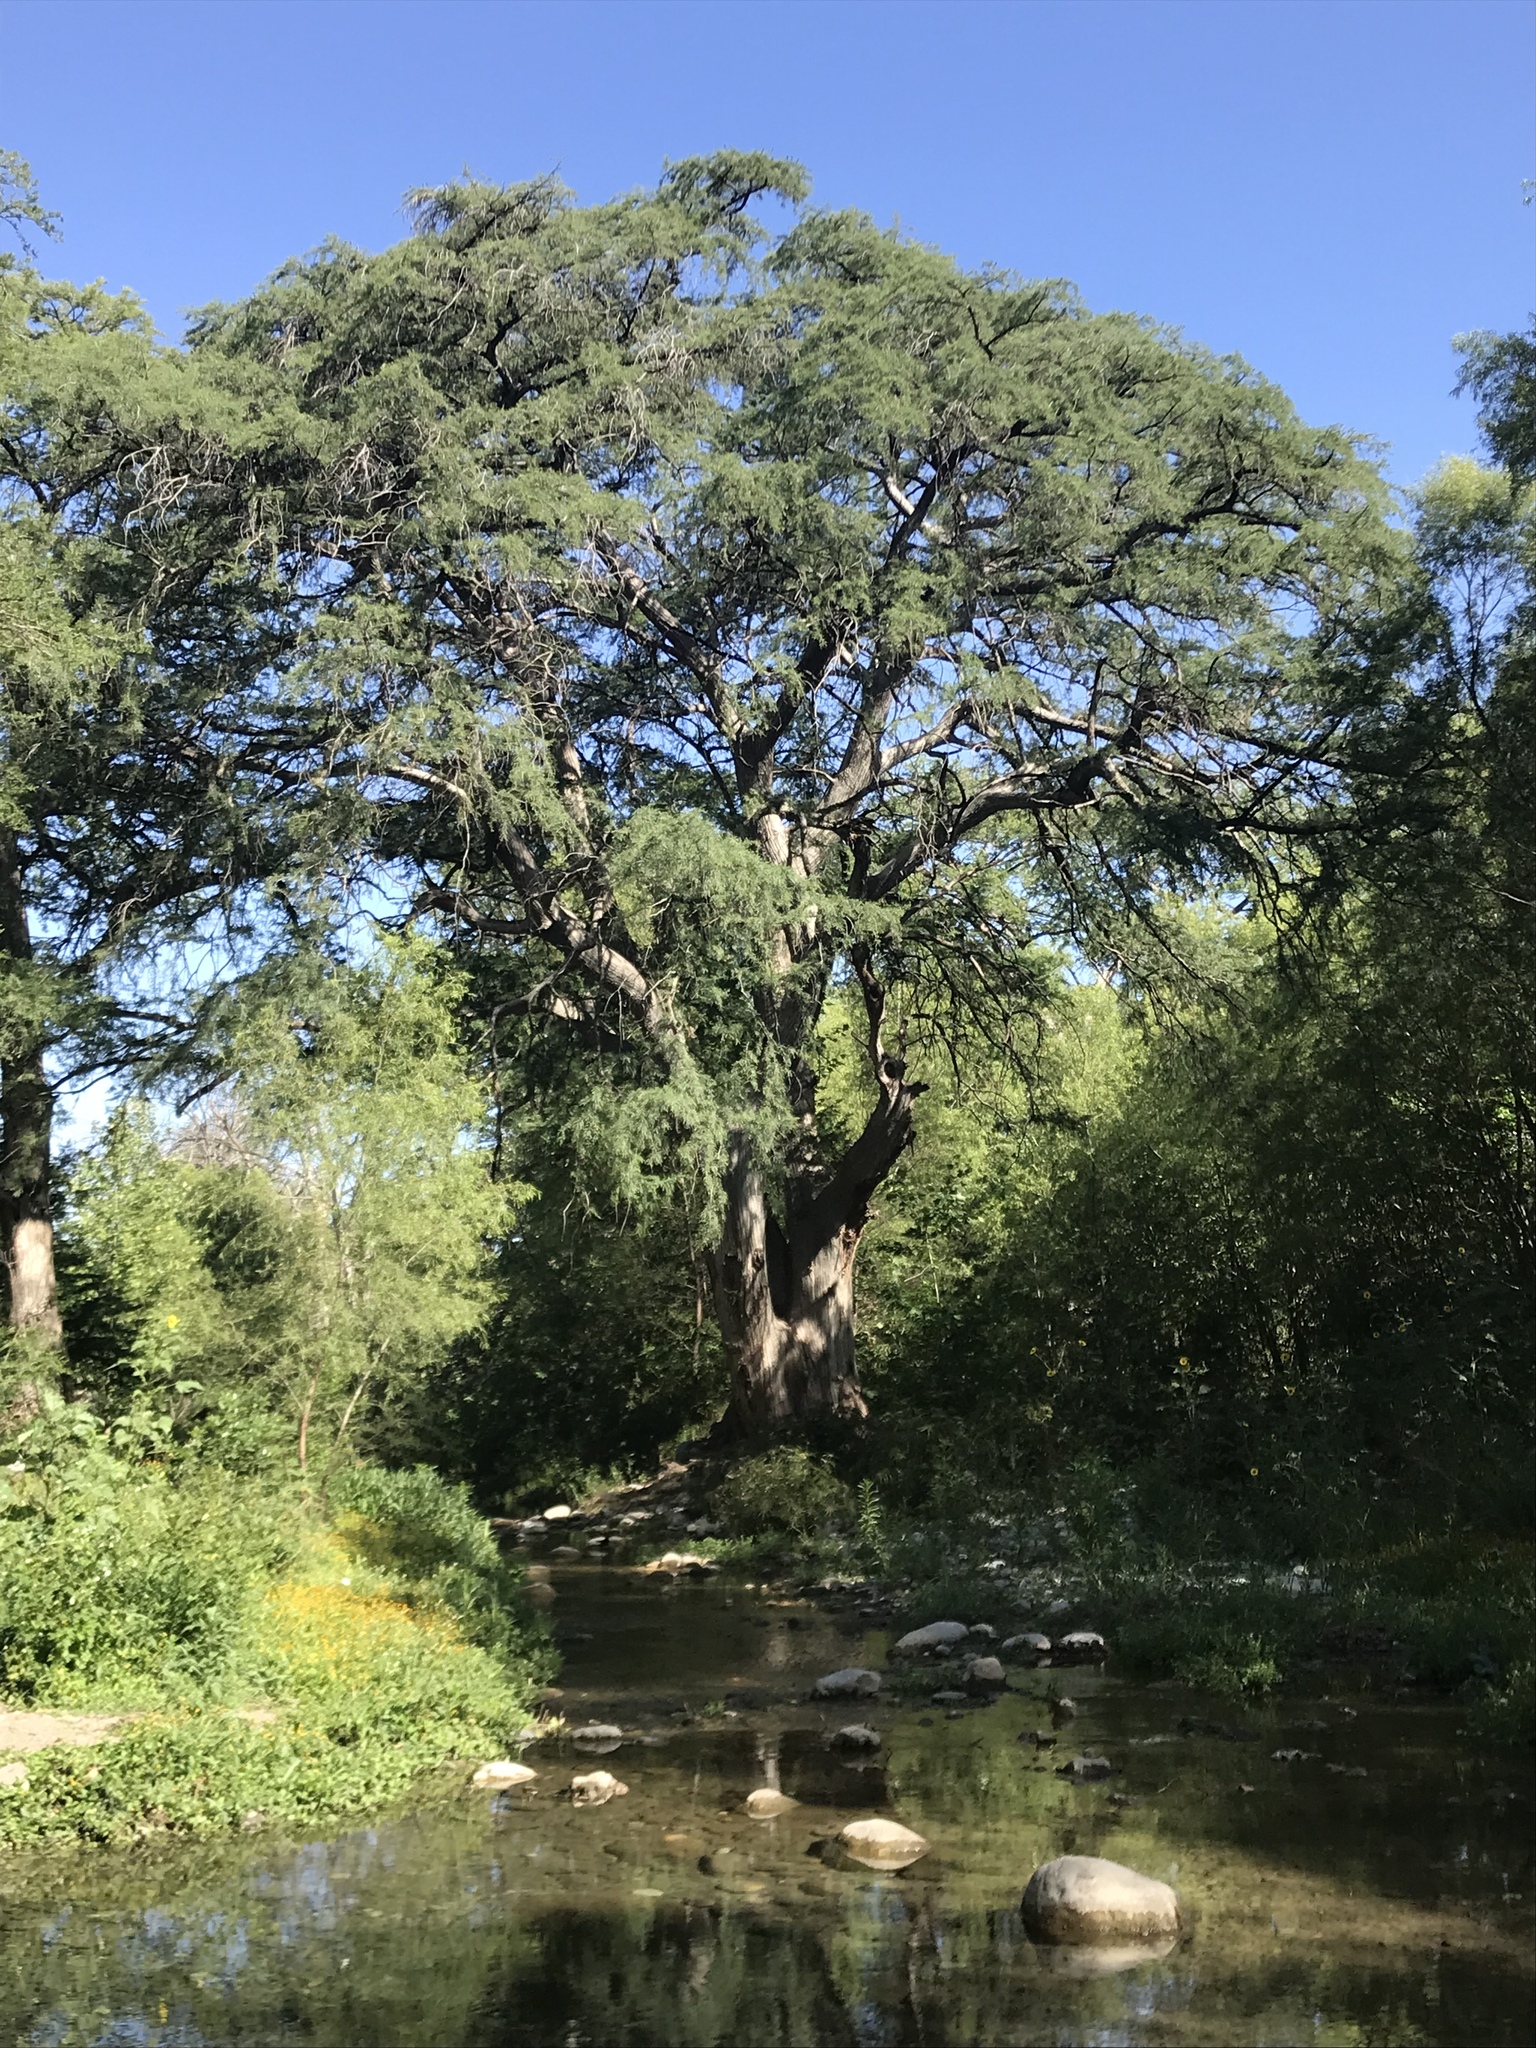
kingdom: Plantae
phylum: Tracheophyta
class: Pinopsida
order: Pinales
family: Cupressaceae
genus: Taxodium
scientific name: Taxodium mucronatum
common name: Montezume bald cypress
